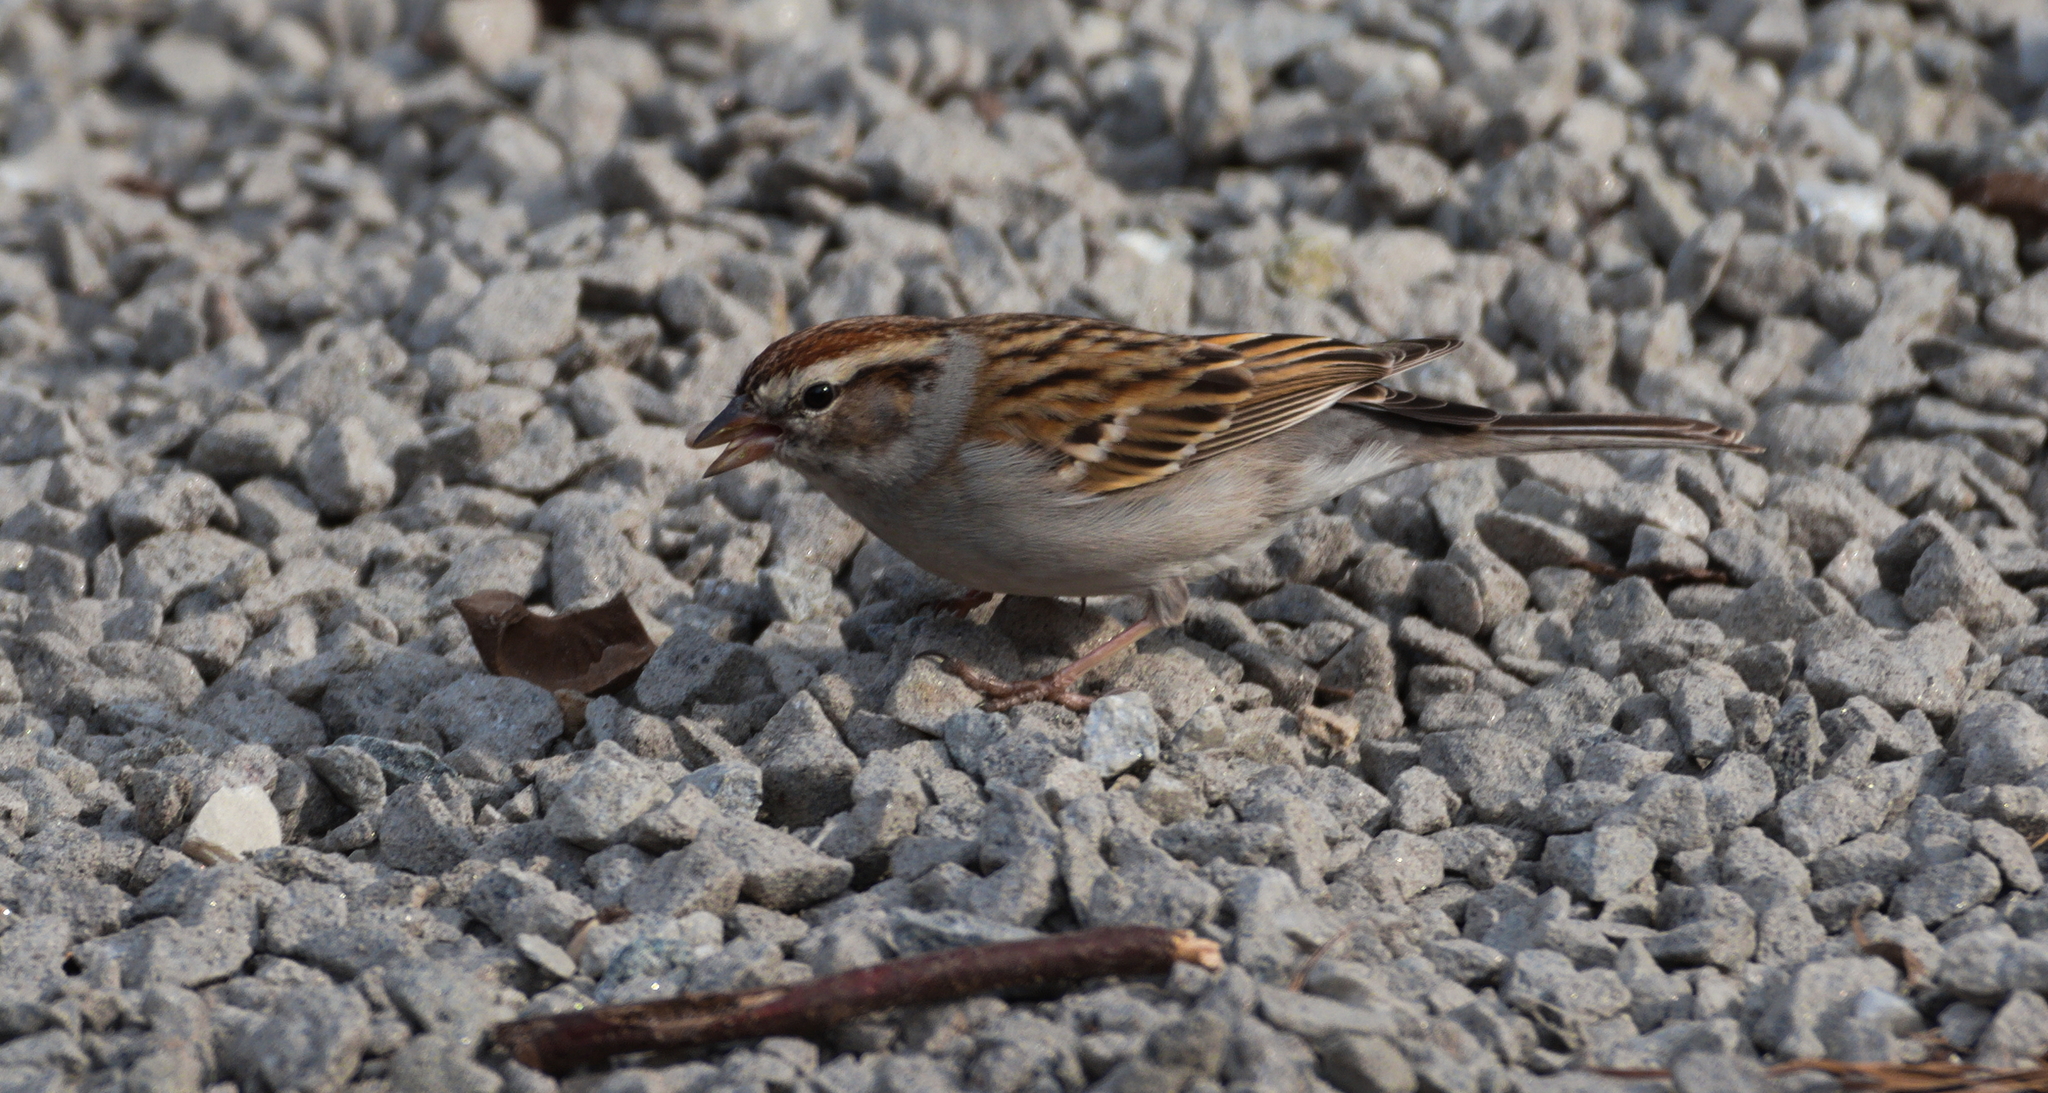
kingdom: Animalia
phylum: Chordata
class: Aves
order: Passeriformes
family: Passerellidae
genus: Spizella
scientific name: Spizella passerina
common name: Chipping sparrow
